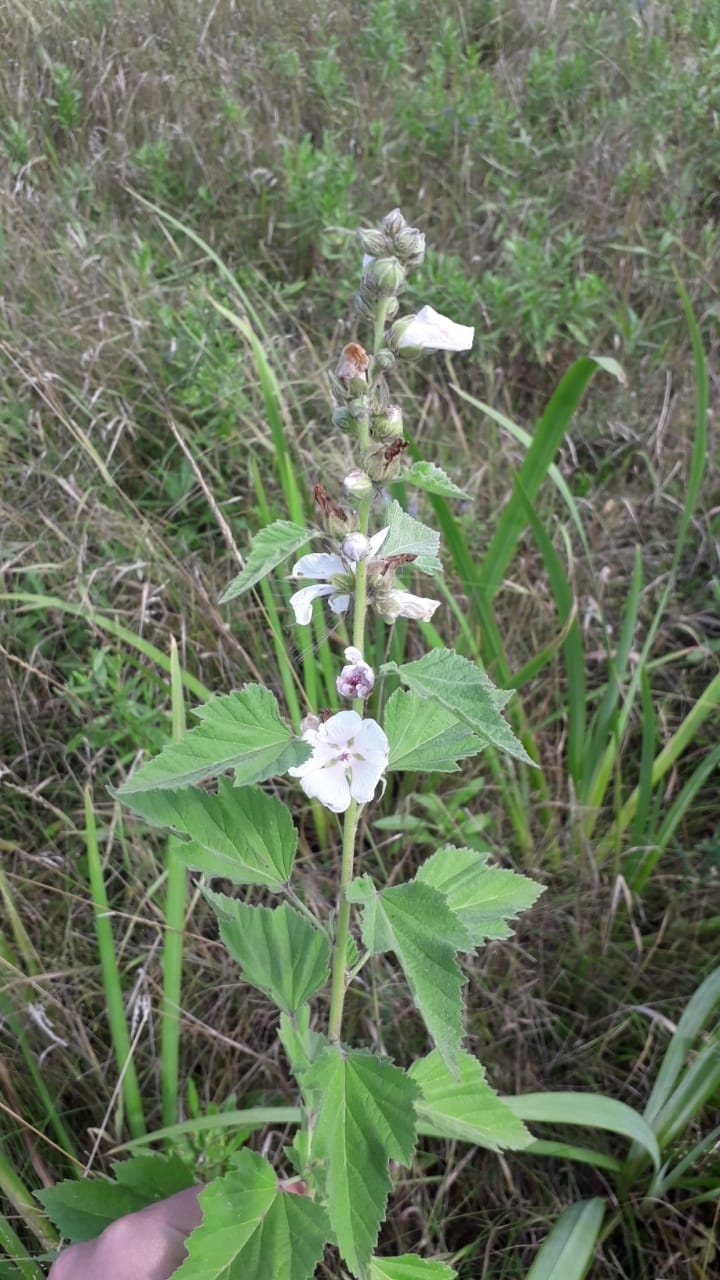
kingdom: Plantae
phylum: Tracheophyta
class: Magnoliopsida
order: Malvales
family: Malvaceae
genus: Althaea
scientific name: Althaea officinalis
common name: Marsh-mallow
